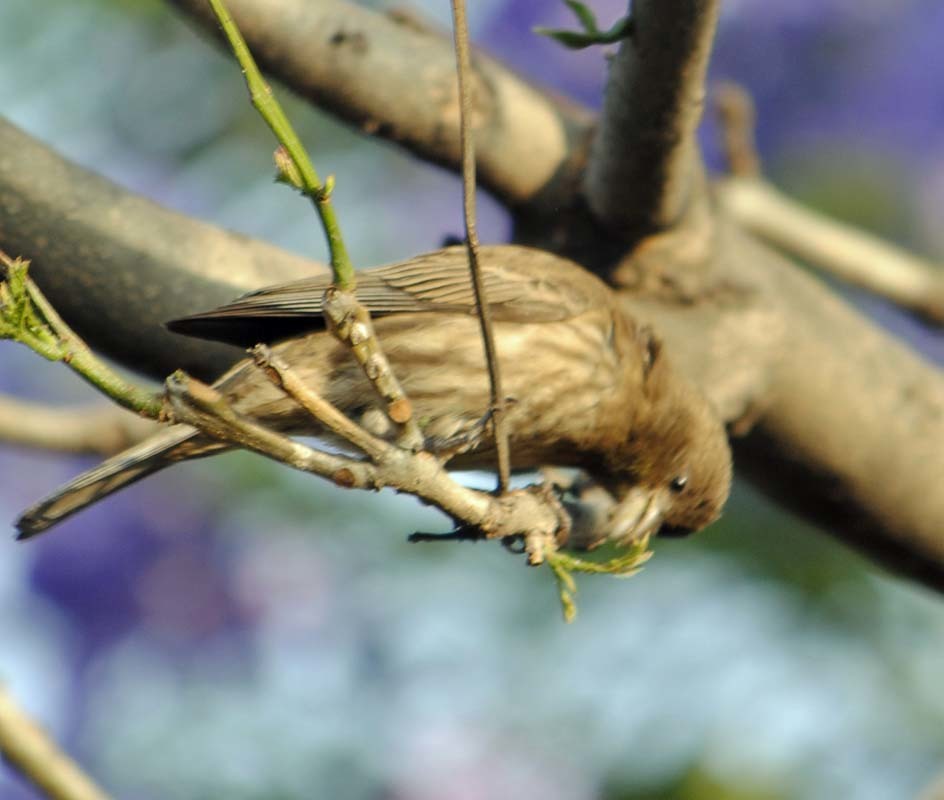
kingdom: Animalia
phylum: Chordata
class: Aves
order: Passeriformes
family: Fringillidae
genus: Haemorhous
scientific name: Haemorhous mexicanus
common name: House finch
